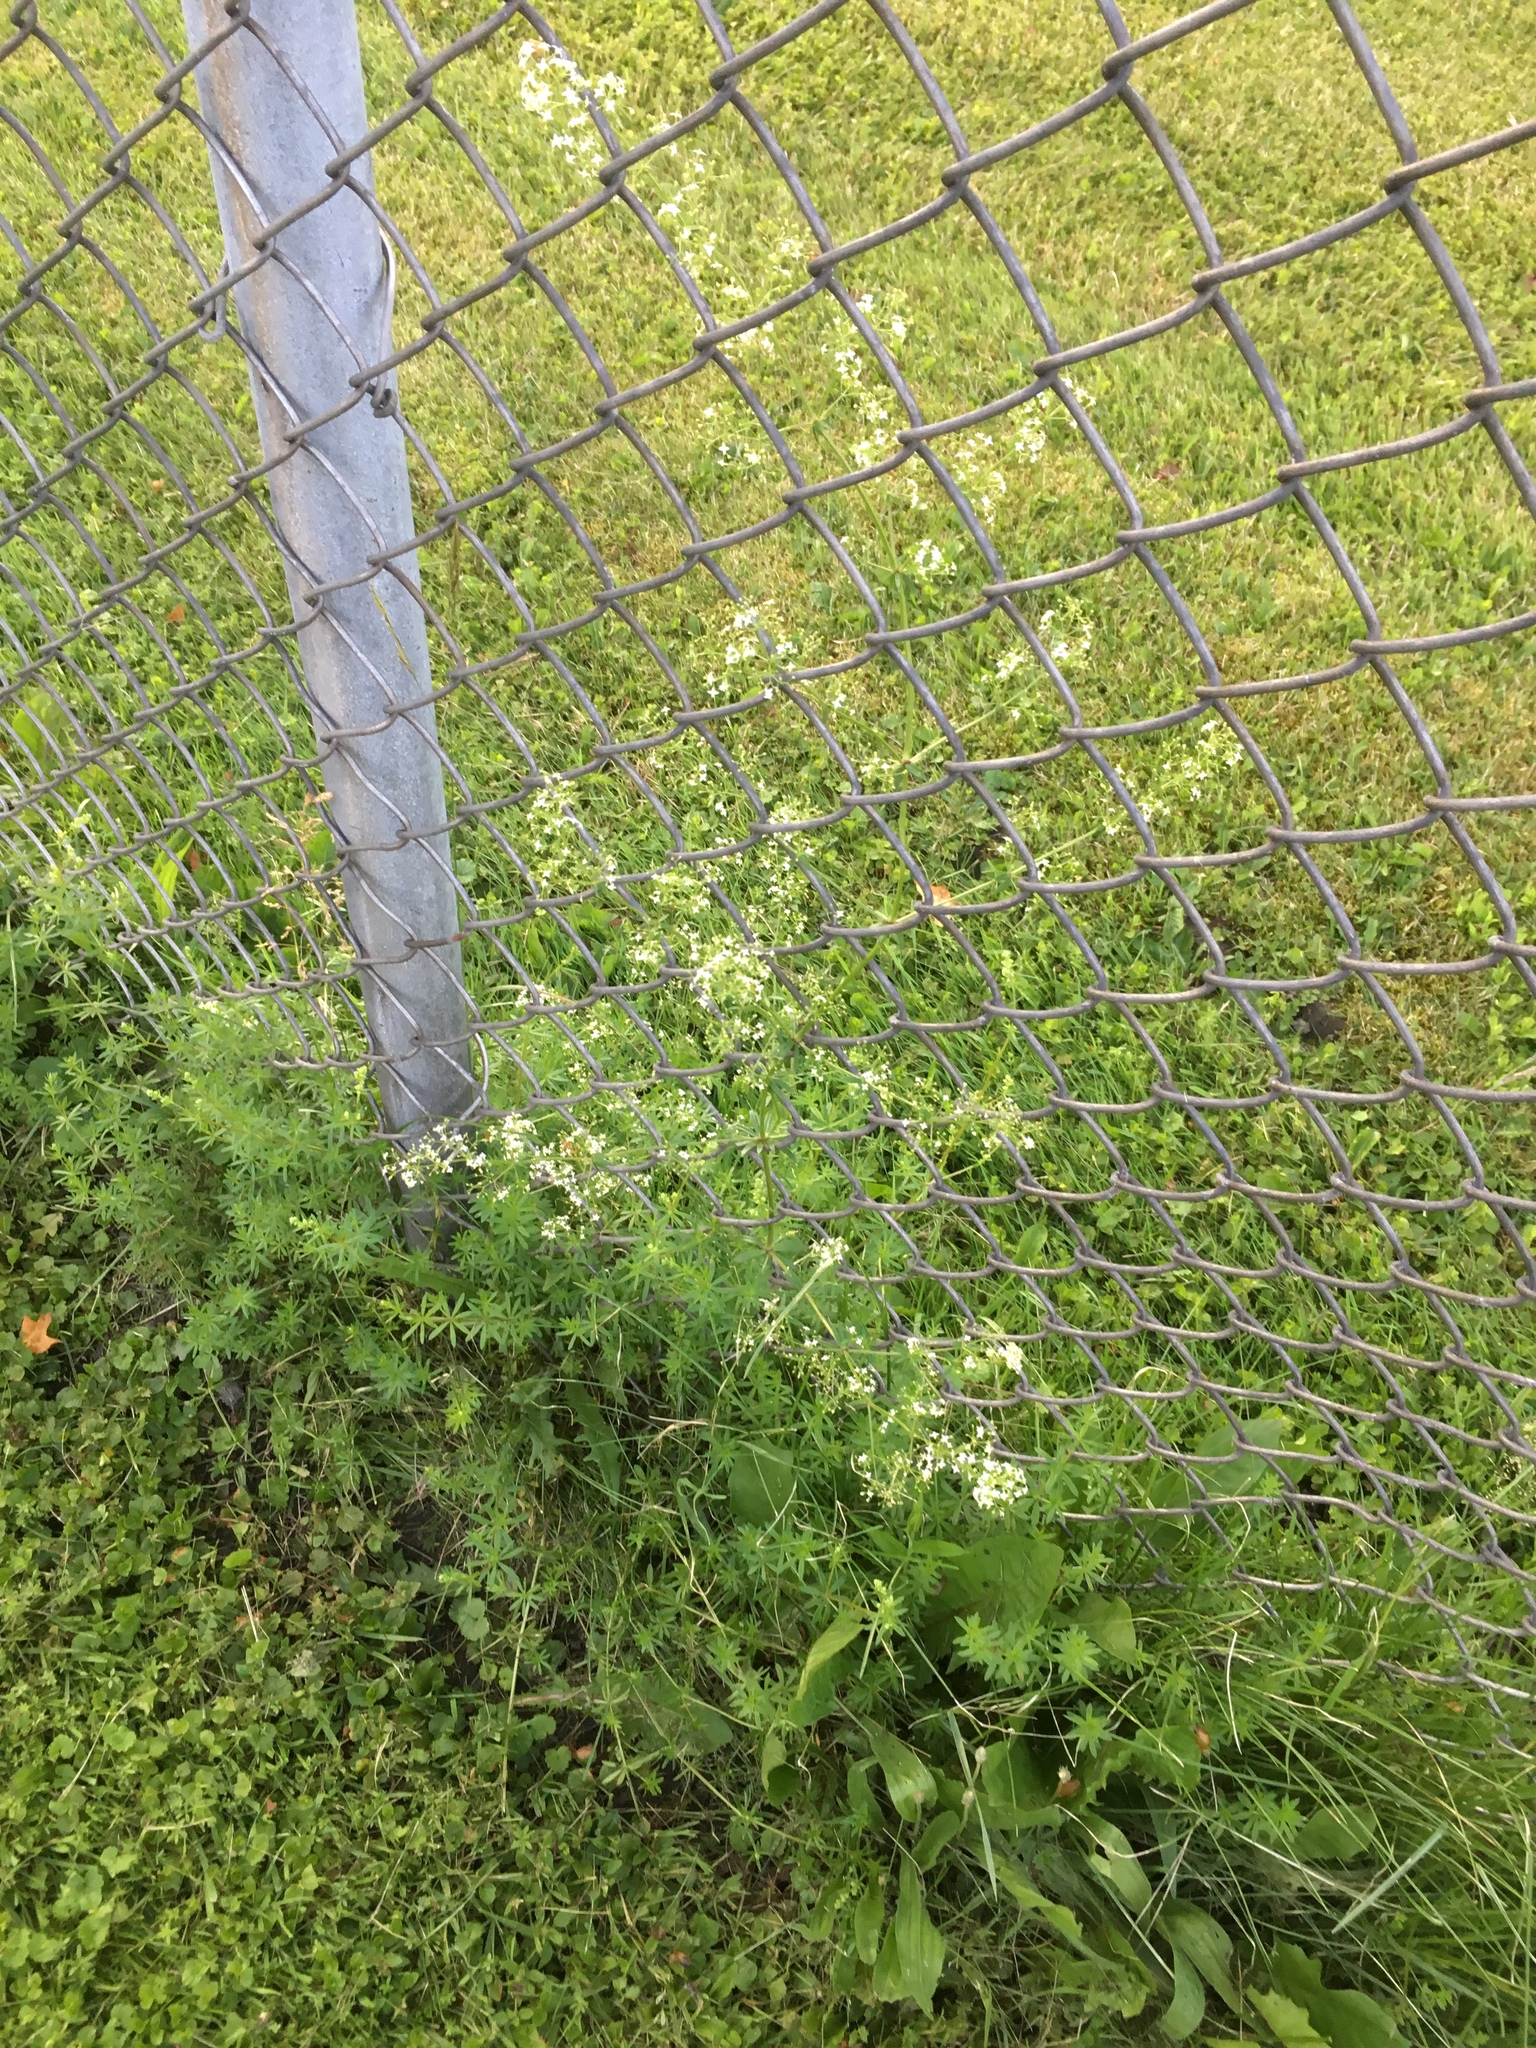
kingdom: Plantae
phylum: Tracheophyta
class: Magnoliopsida
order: Gentianales
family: Rubiaceae
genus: Galium
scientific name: Galium mollugo
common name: Hedge bedstraw
